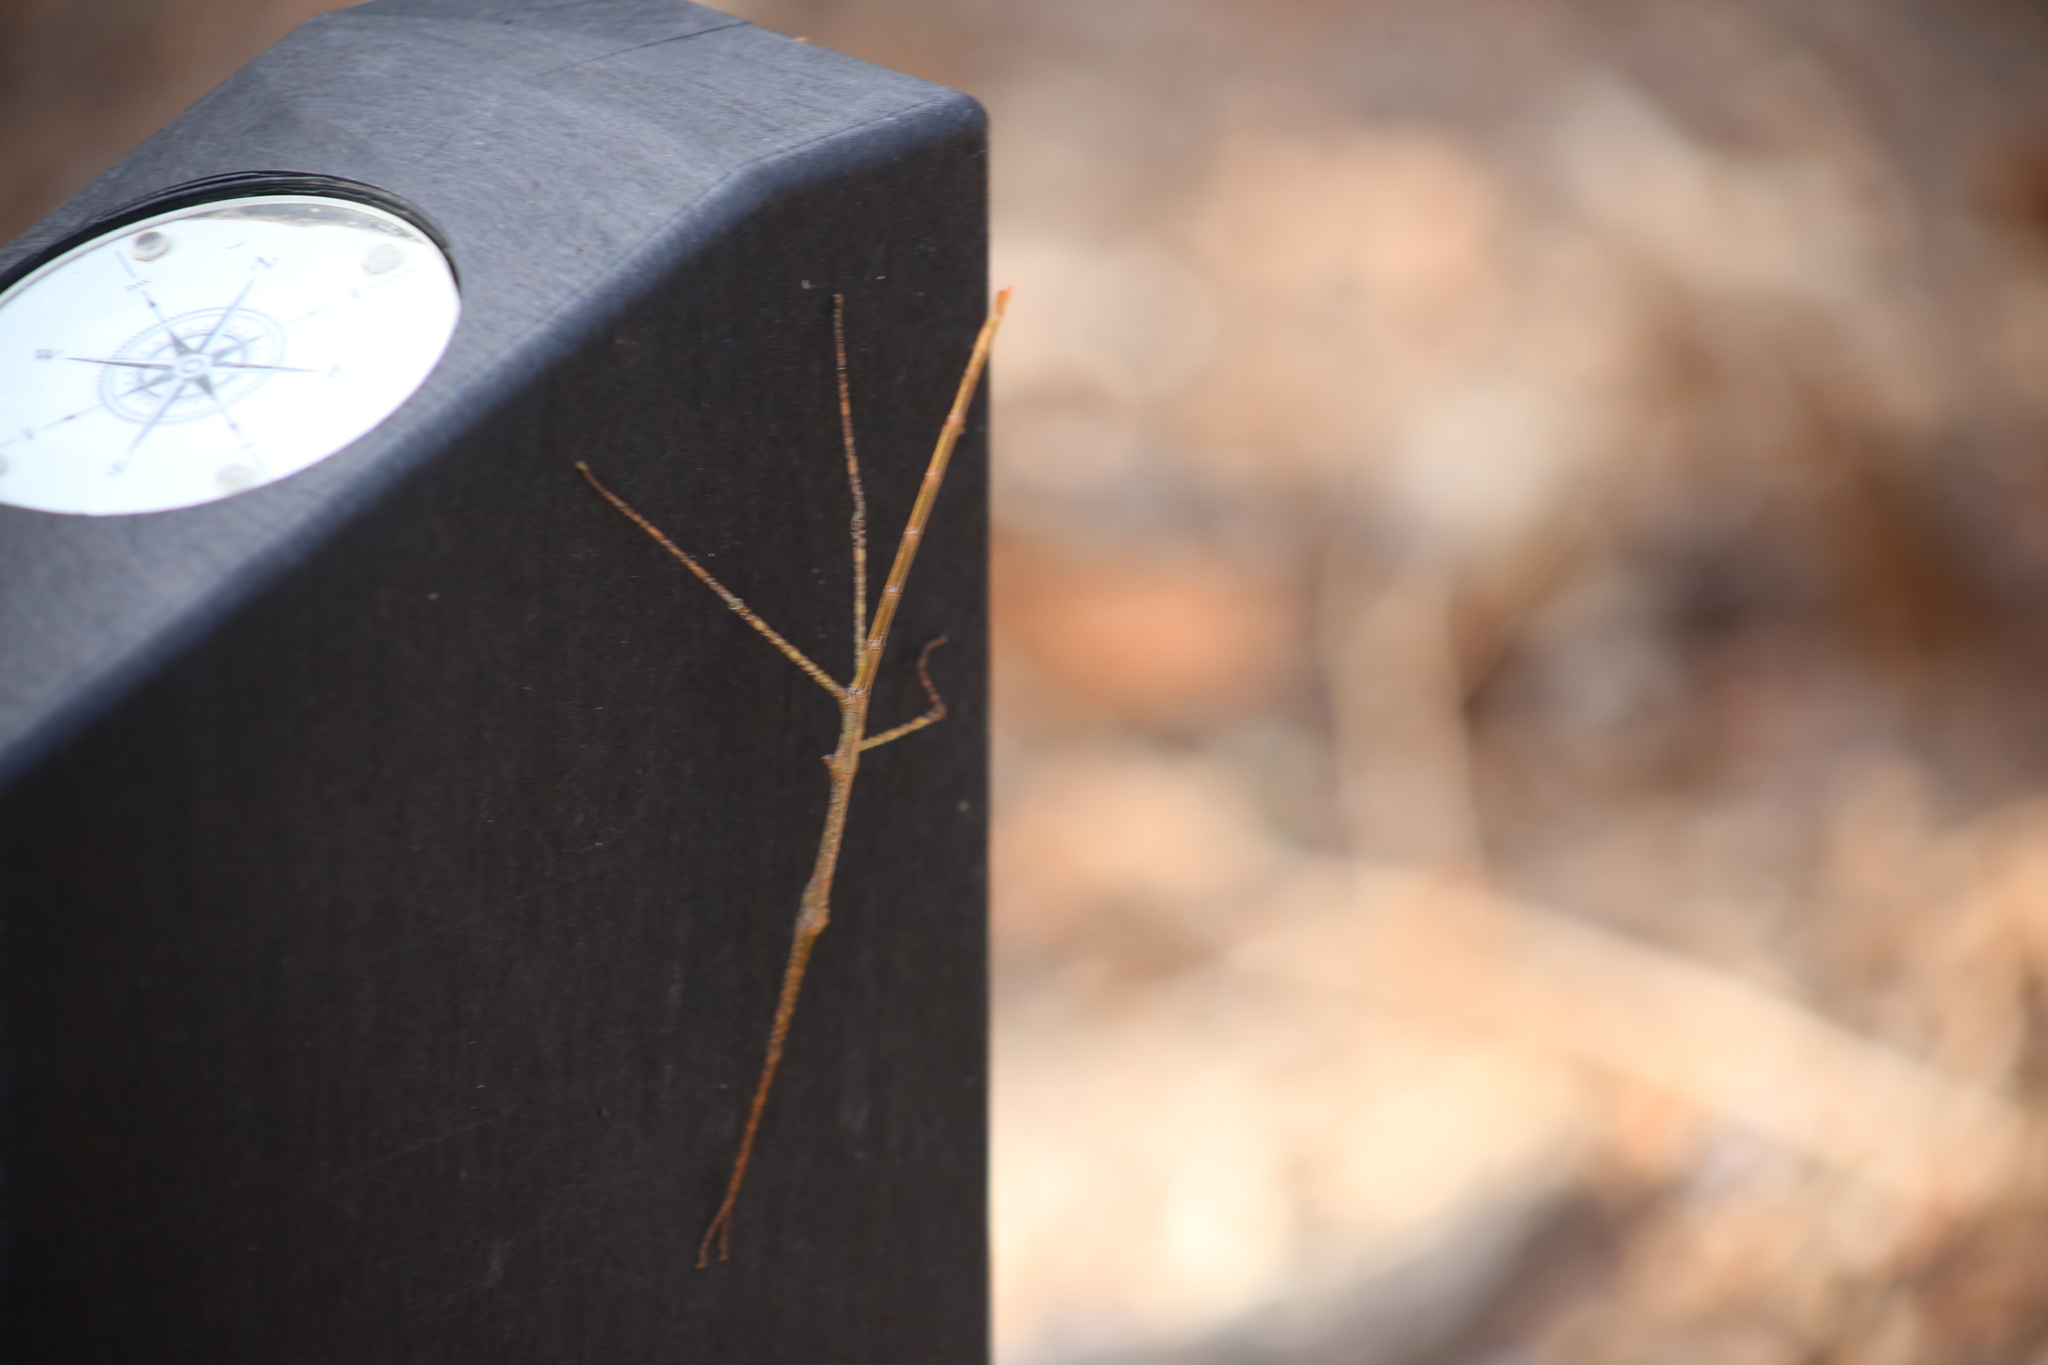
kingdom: Animalia
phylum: Arthropoda
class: Insecta
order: Phasmida
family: Phasmatidae
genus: Anchiale
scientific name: Anchiale austrotessulata
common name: Tessellated stick-insect
